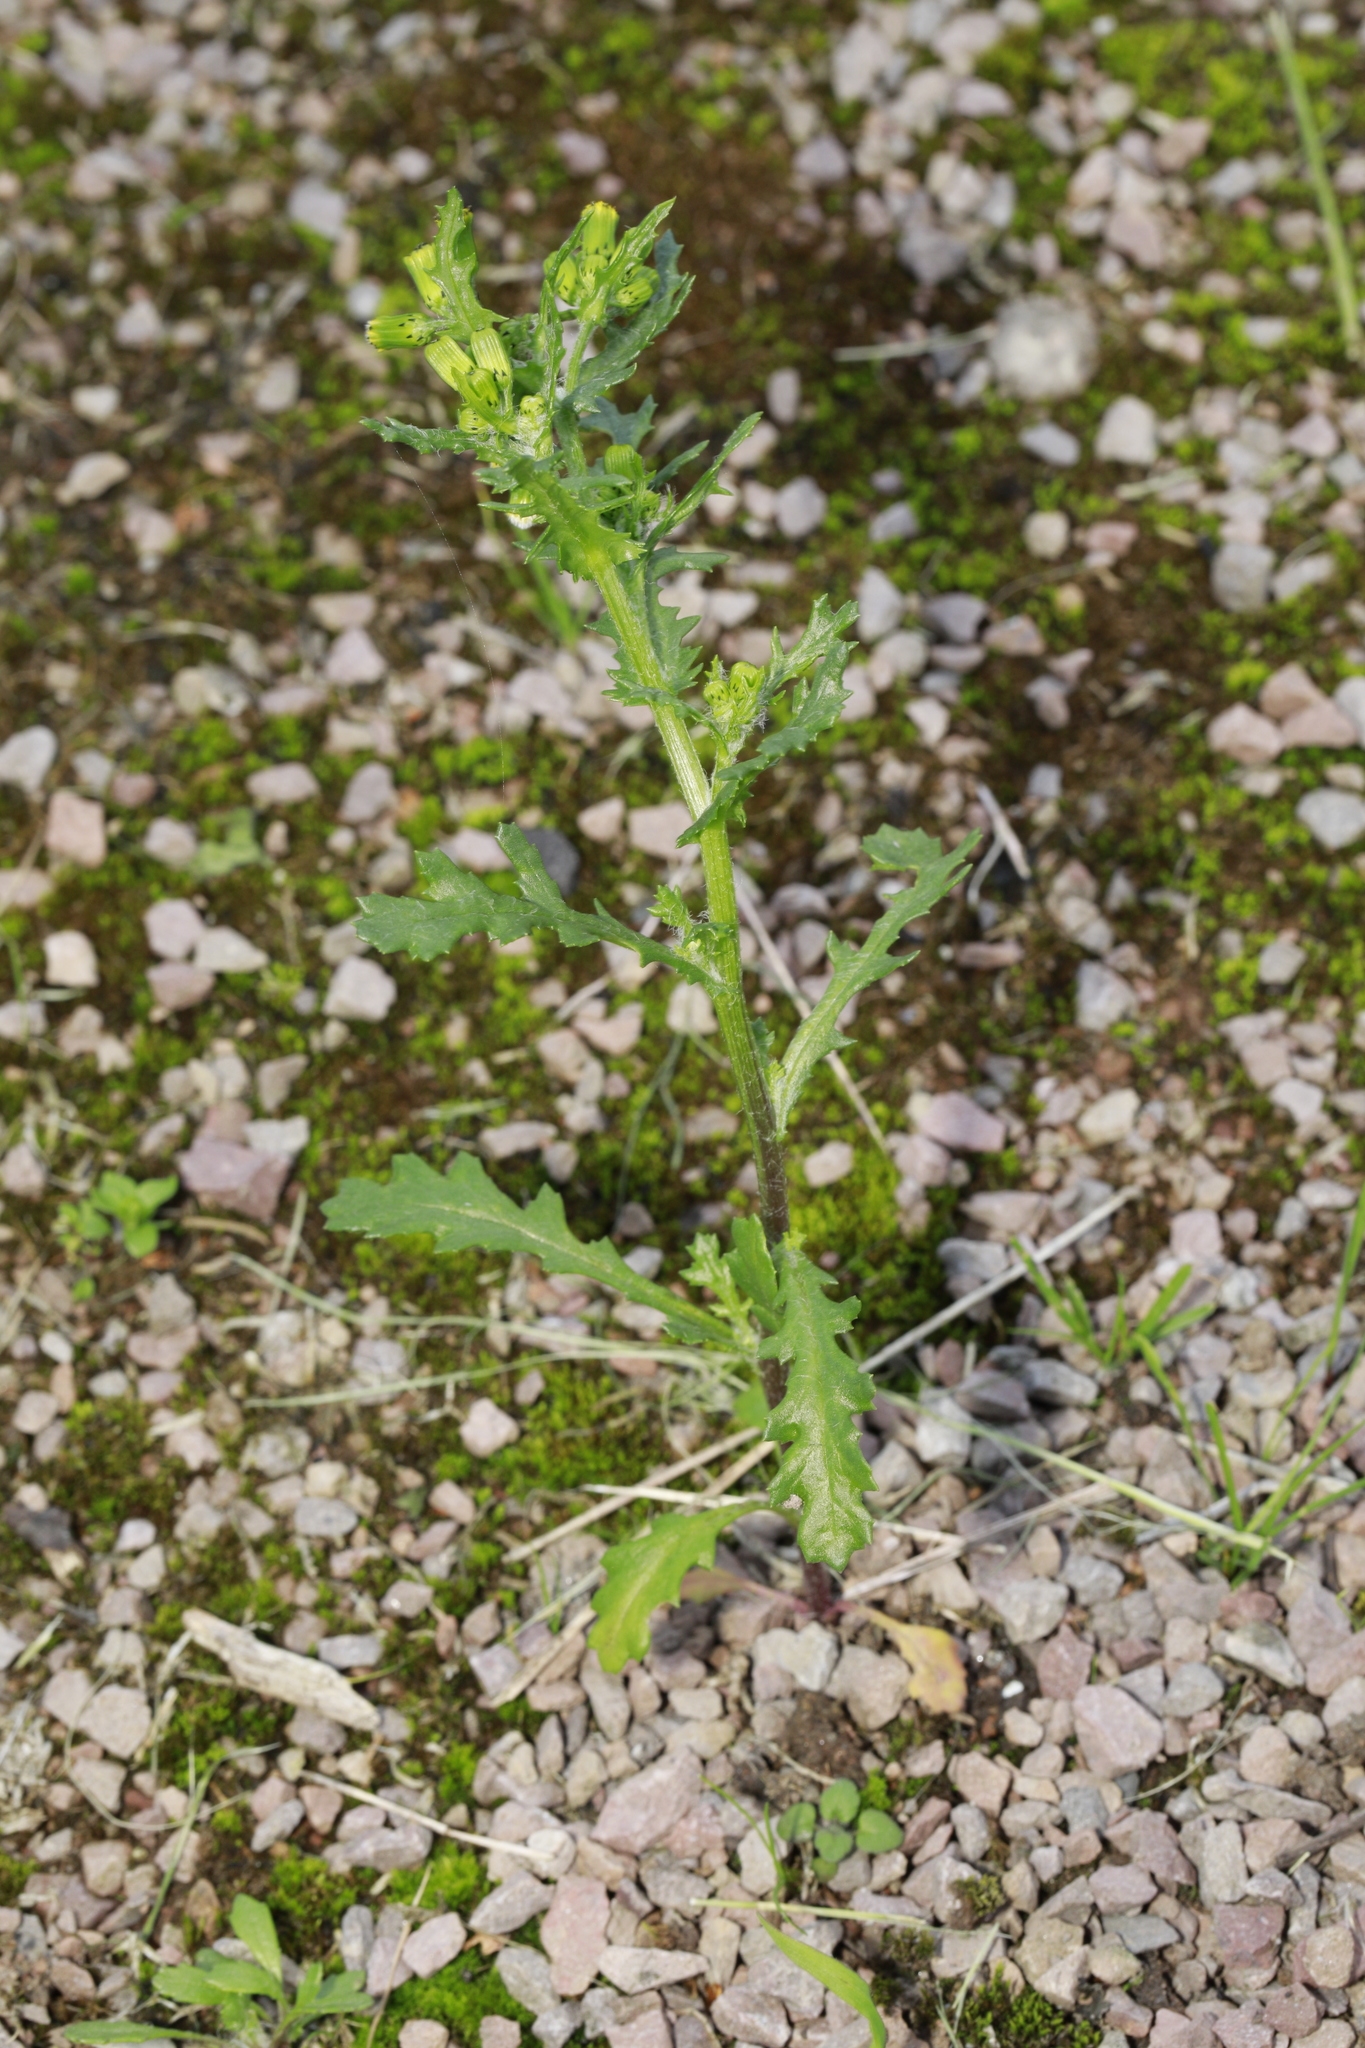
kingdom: Plantae
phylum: Tracheophyta
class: Magnoliopsida
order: Asterales
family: Asteraceae
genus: Senecio
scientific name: Senecio vulgaris
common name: Old-man-in-the-spring
